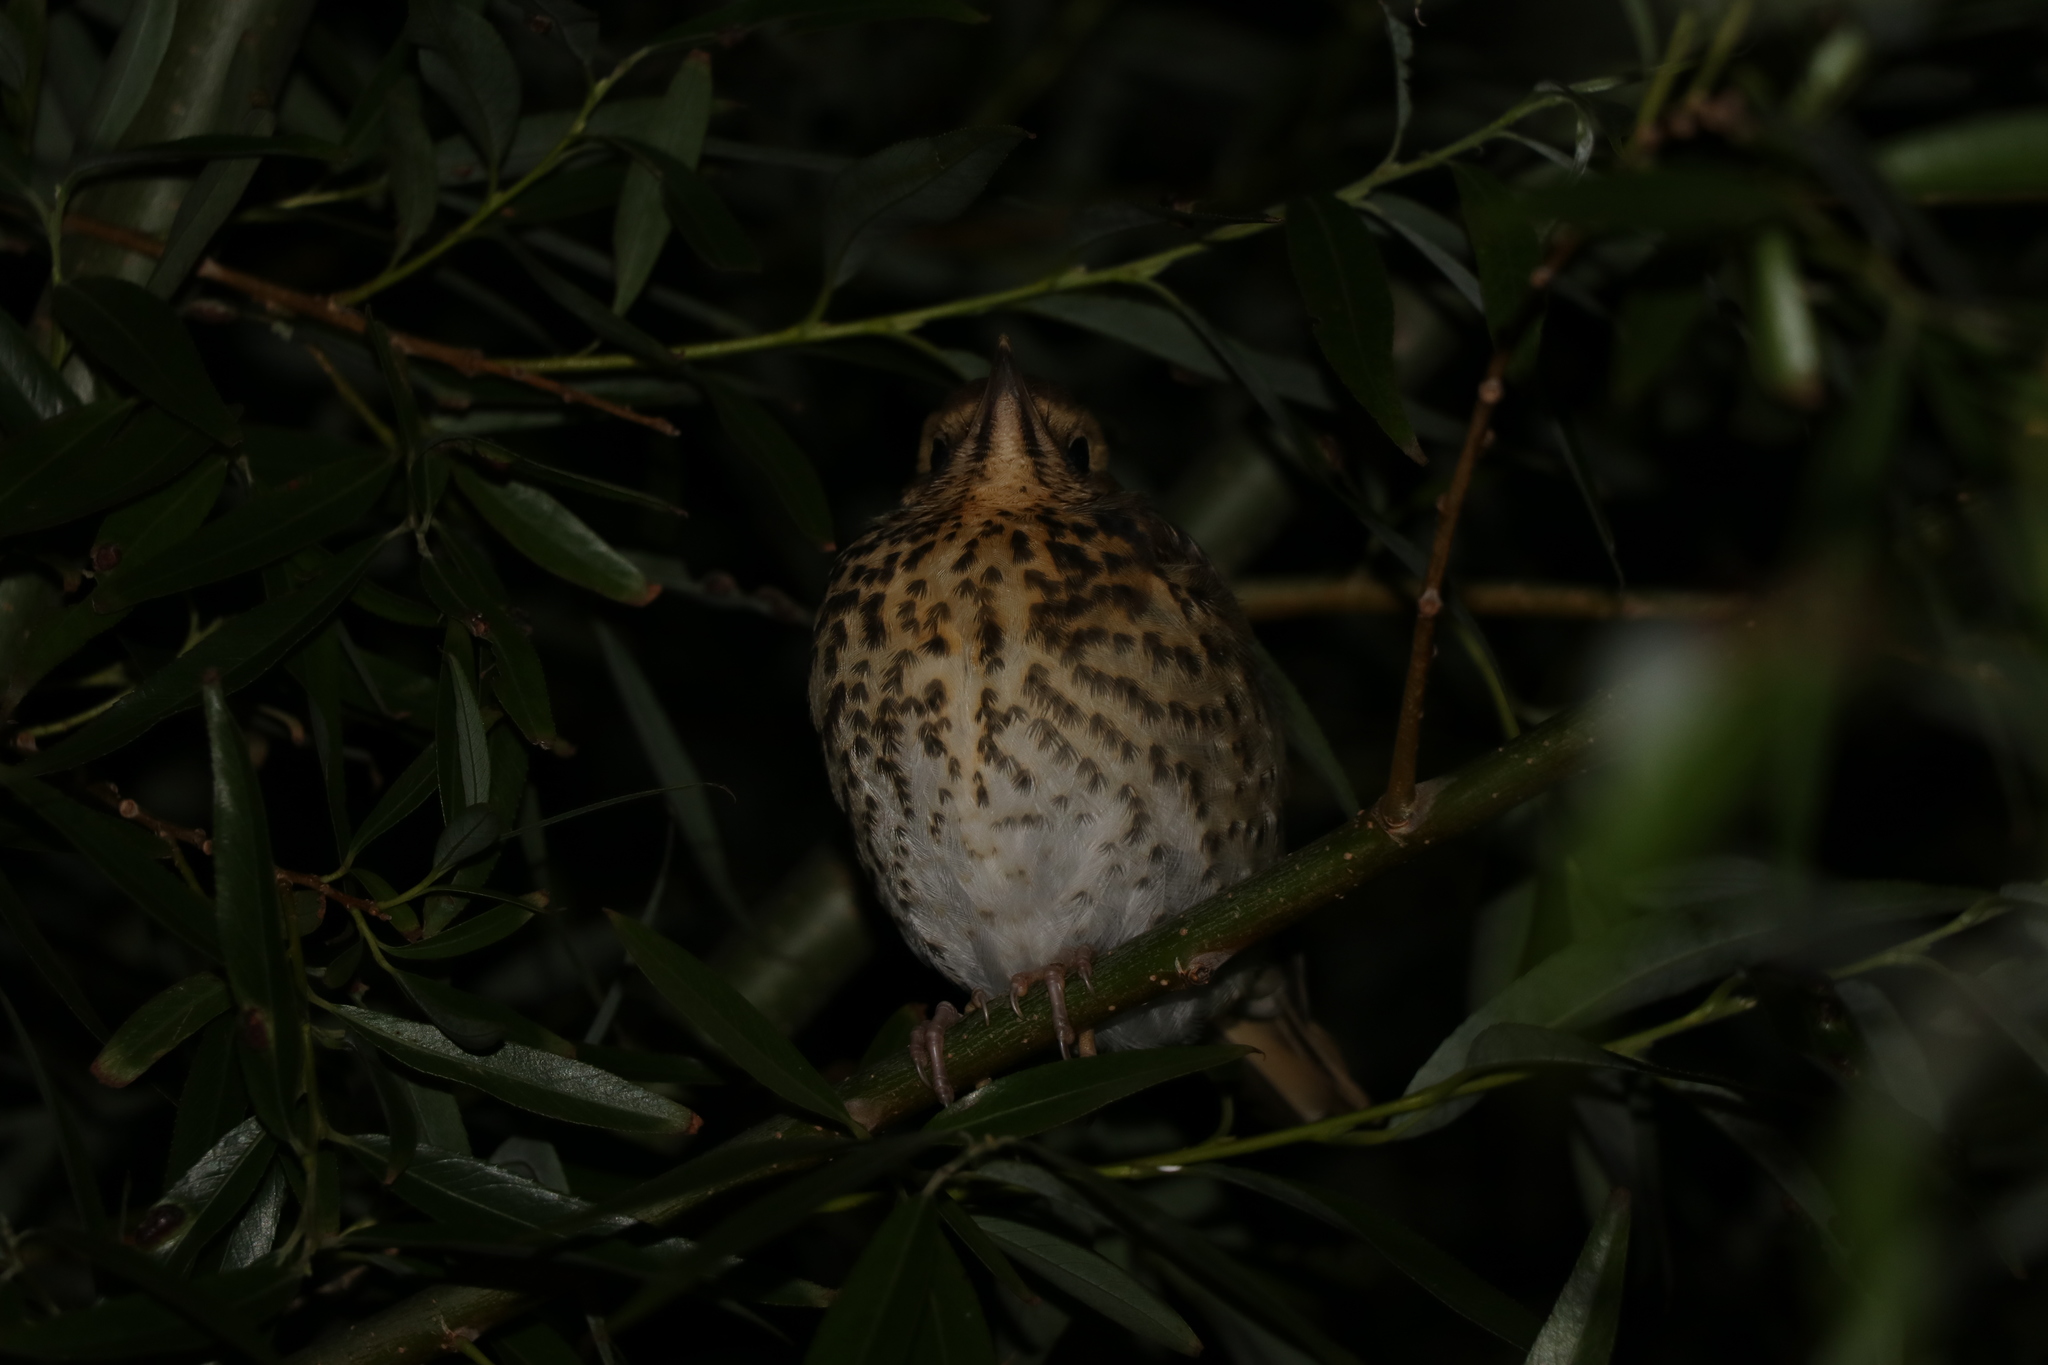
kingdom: Animalia
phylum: Chordata
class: Aves
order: Passeriformes
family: Turdidae
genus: Turdus
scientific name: Turdus philomelos
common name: Song thrush
